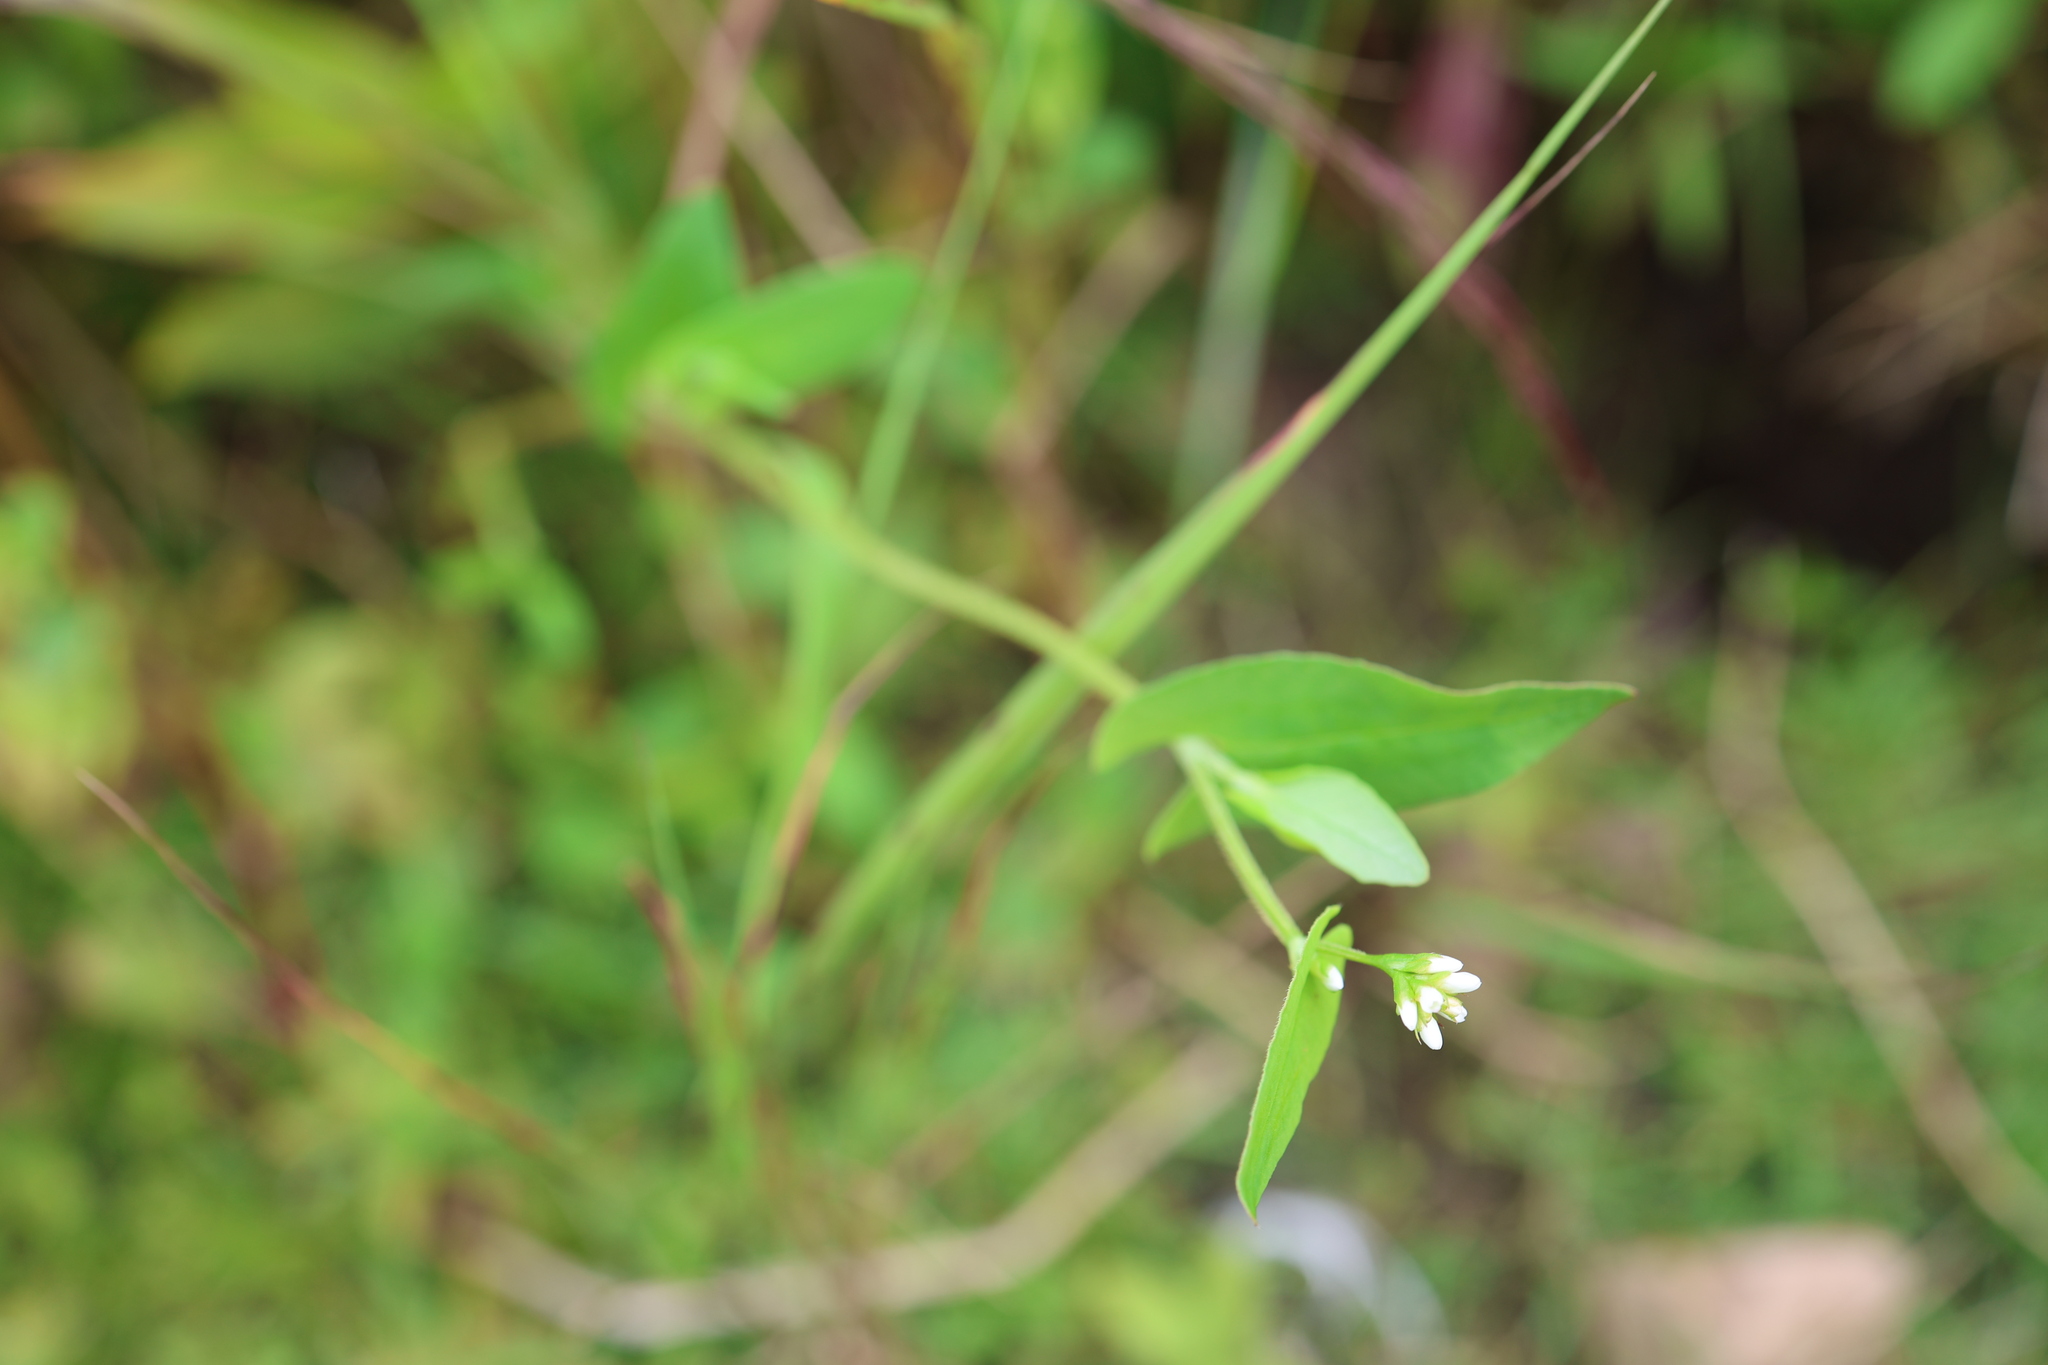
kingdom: Plantae
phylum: Tracheophyta
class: Magnoliopsida
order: Caryophyllales
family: Polygonaceae
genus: Persicaria
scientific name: Persicaria sagittata
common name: American tearthumb
